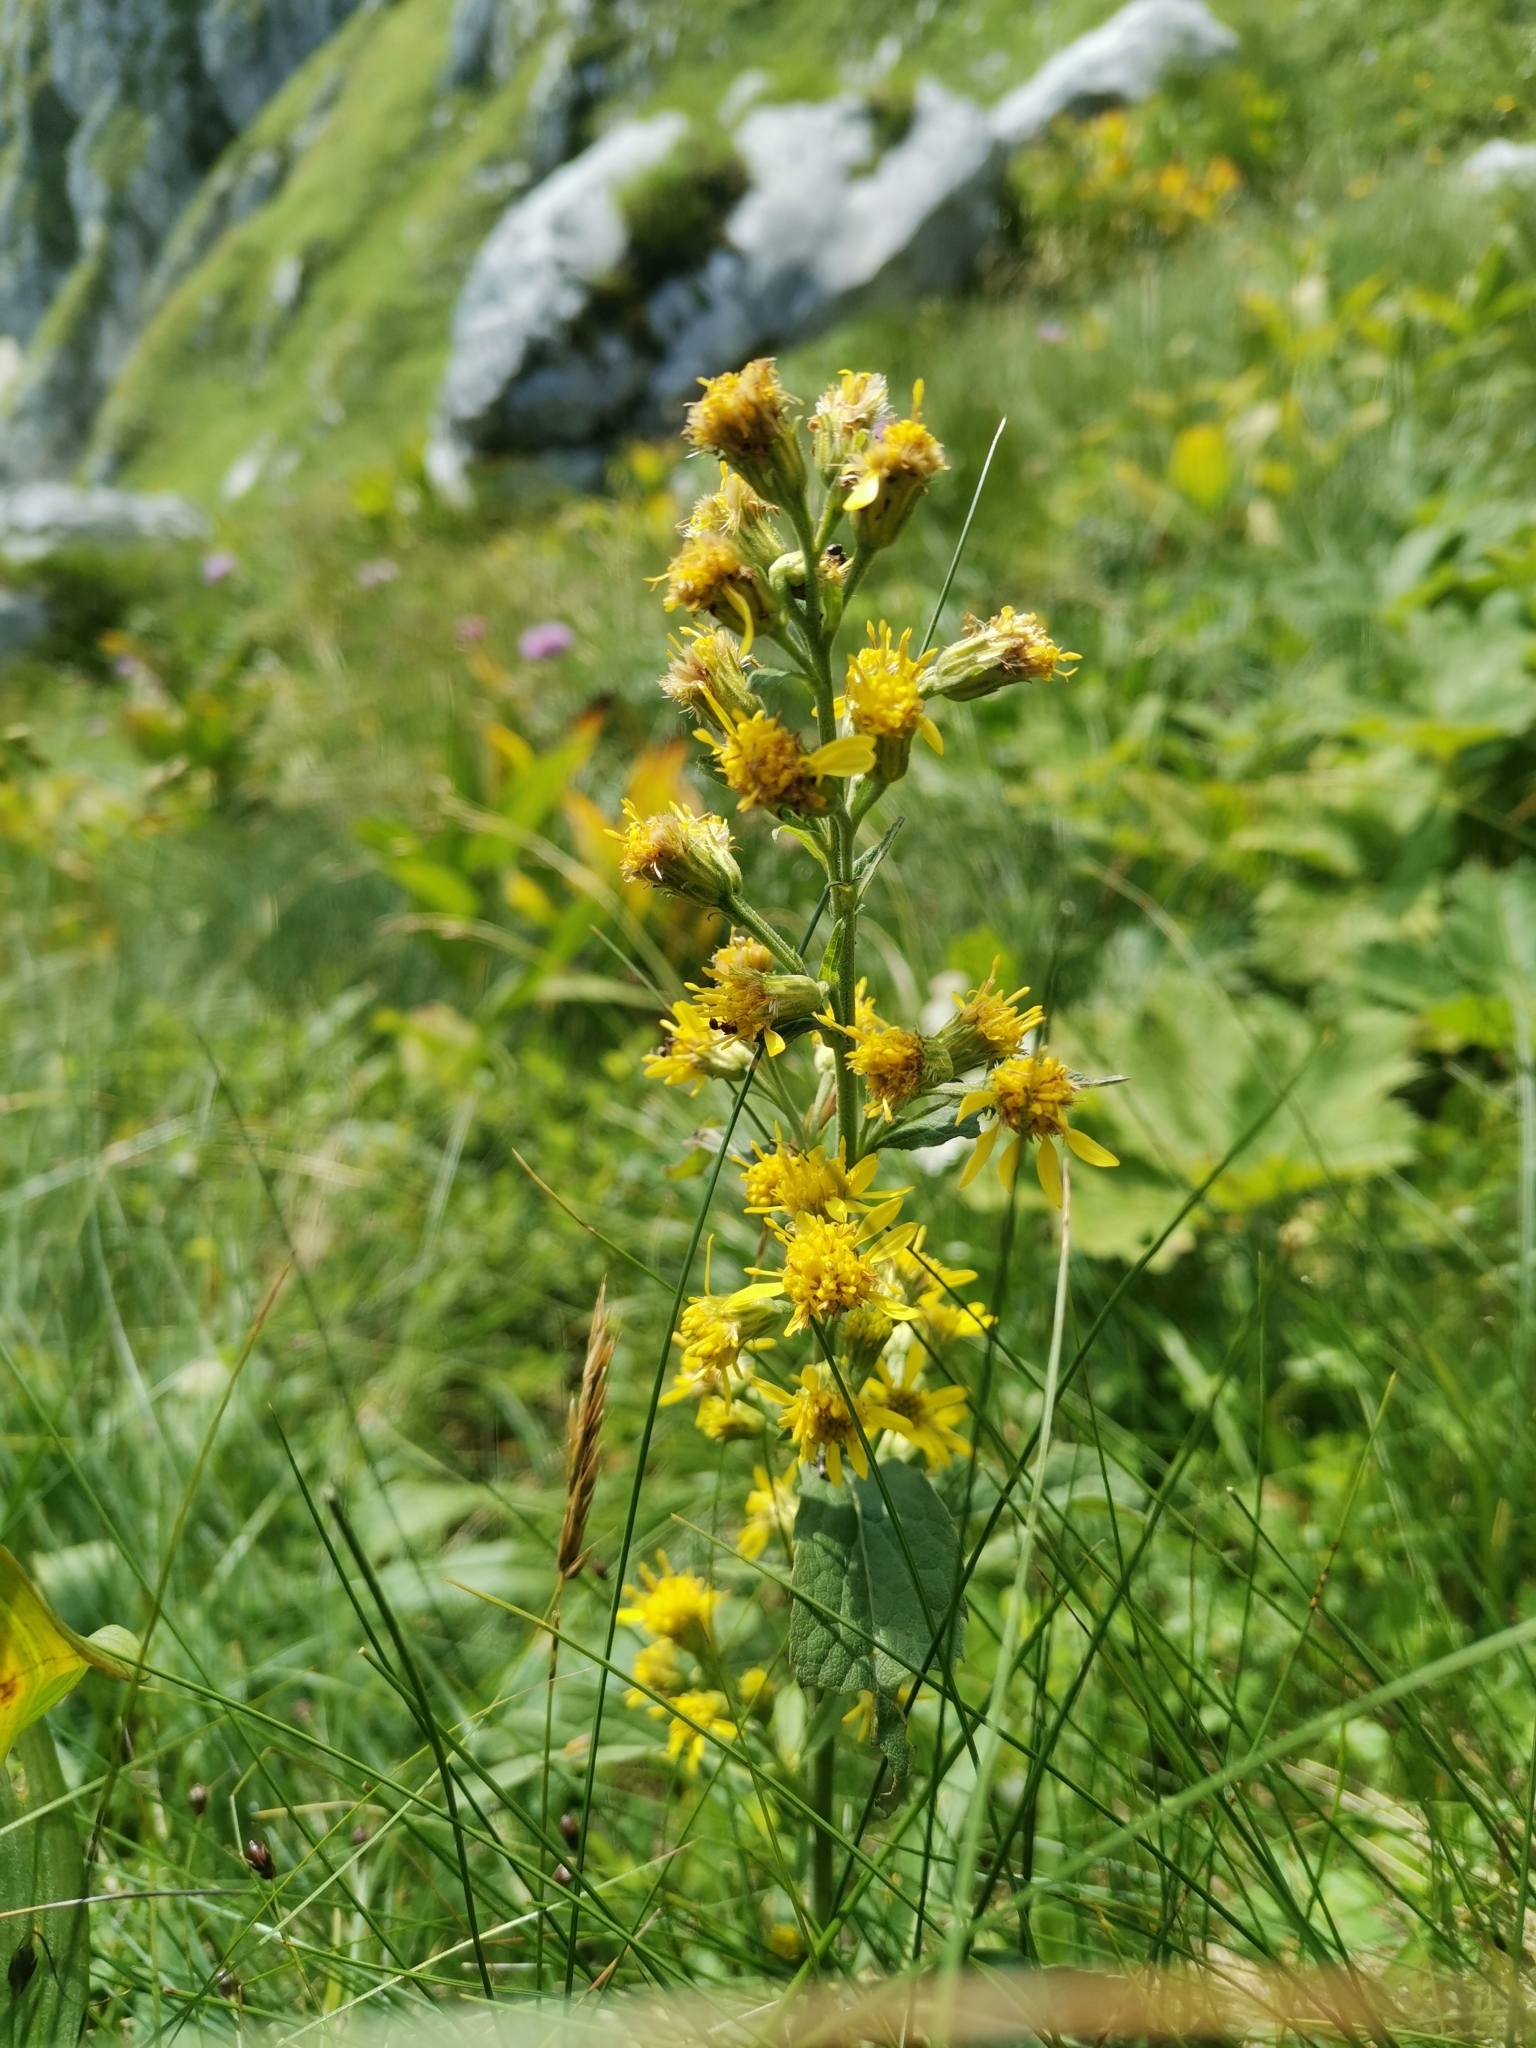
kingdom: Plantae
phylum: Tracheophyta
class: Magnoliopsida
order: Asterales
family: Asteraceae
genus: Solidago
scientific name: Solidago virgaurea
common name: Goldenrod
